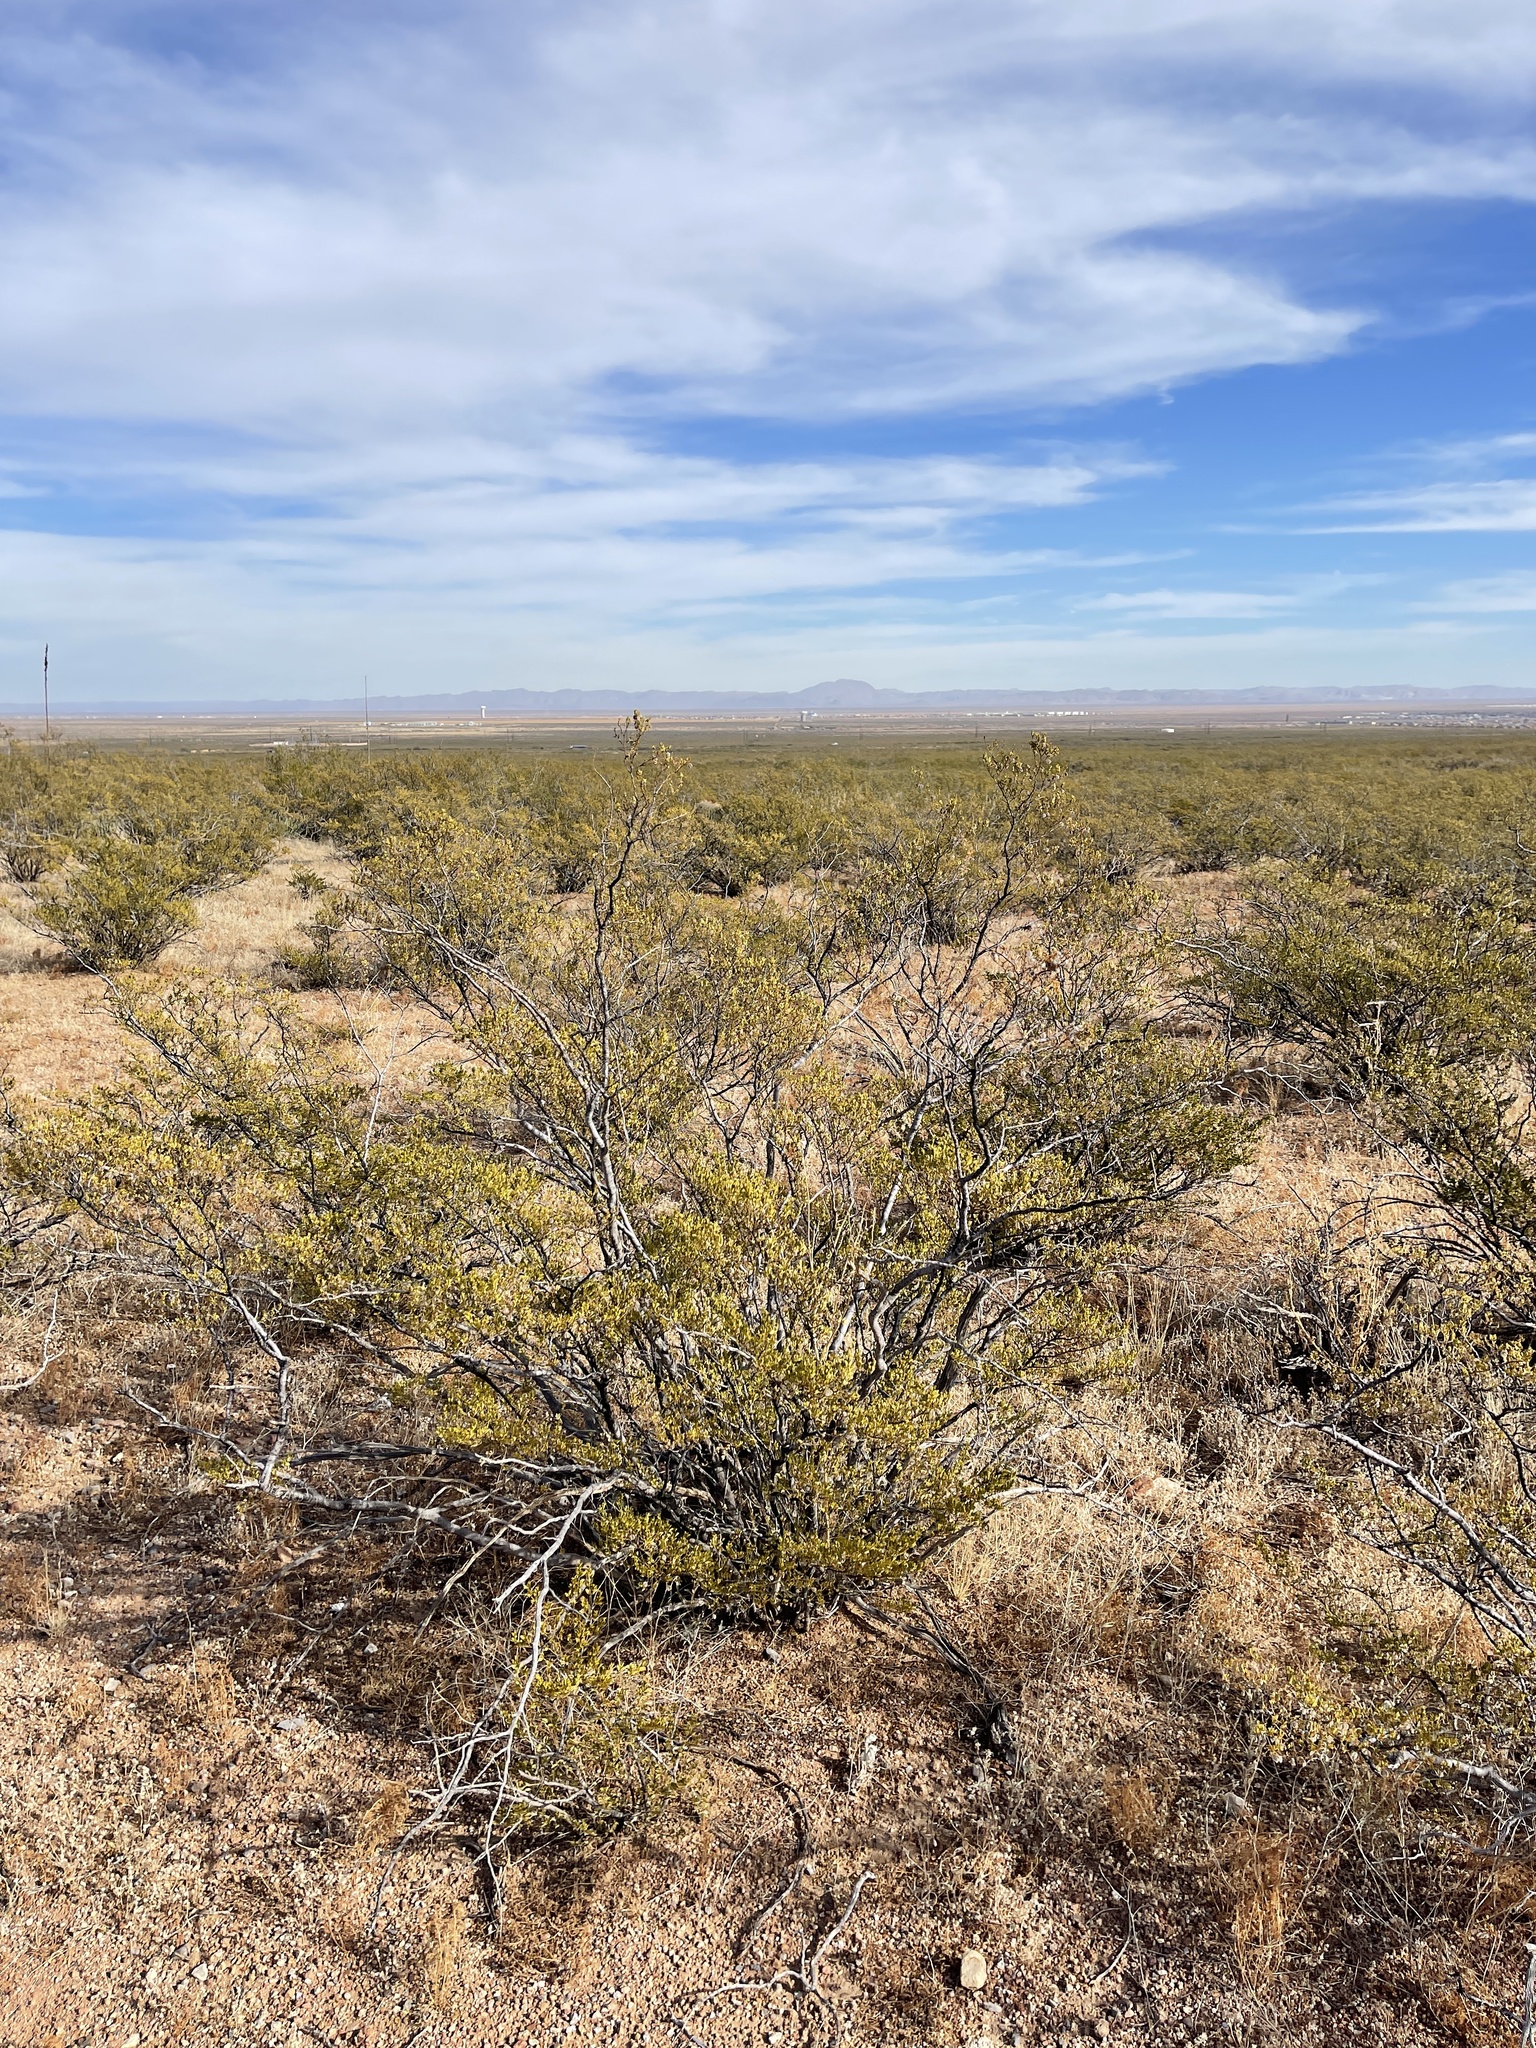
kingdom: Plantae
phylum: Tracheophyta
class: Magnoliopsida
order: Zygophyllales
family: Zygophyllaceae
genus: Larrea
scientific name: Larrea tridentata
